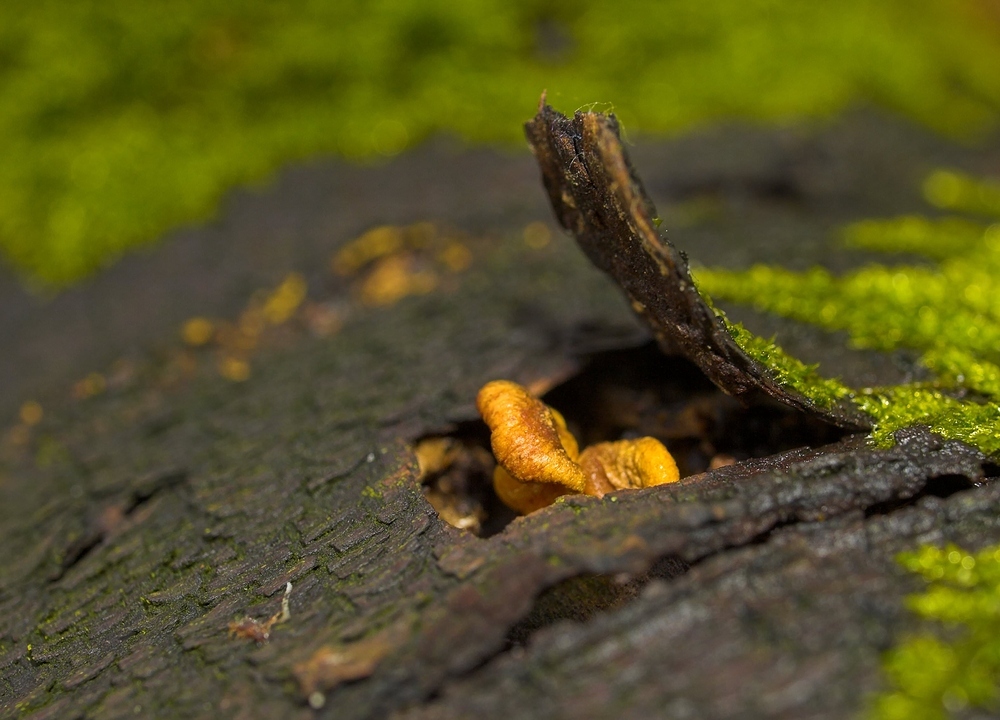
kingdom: Fungi
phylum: Basidiomycota
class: Agaricomycetes
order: Agaricales
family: Sarcomyxaceae
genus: Sarcomyxa
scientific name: Sarcomyxa serotina
